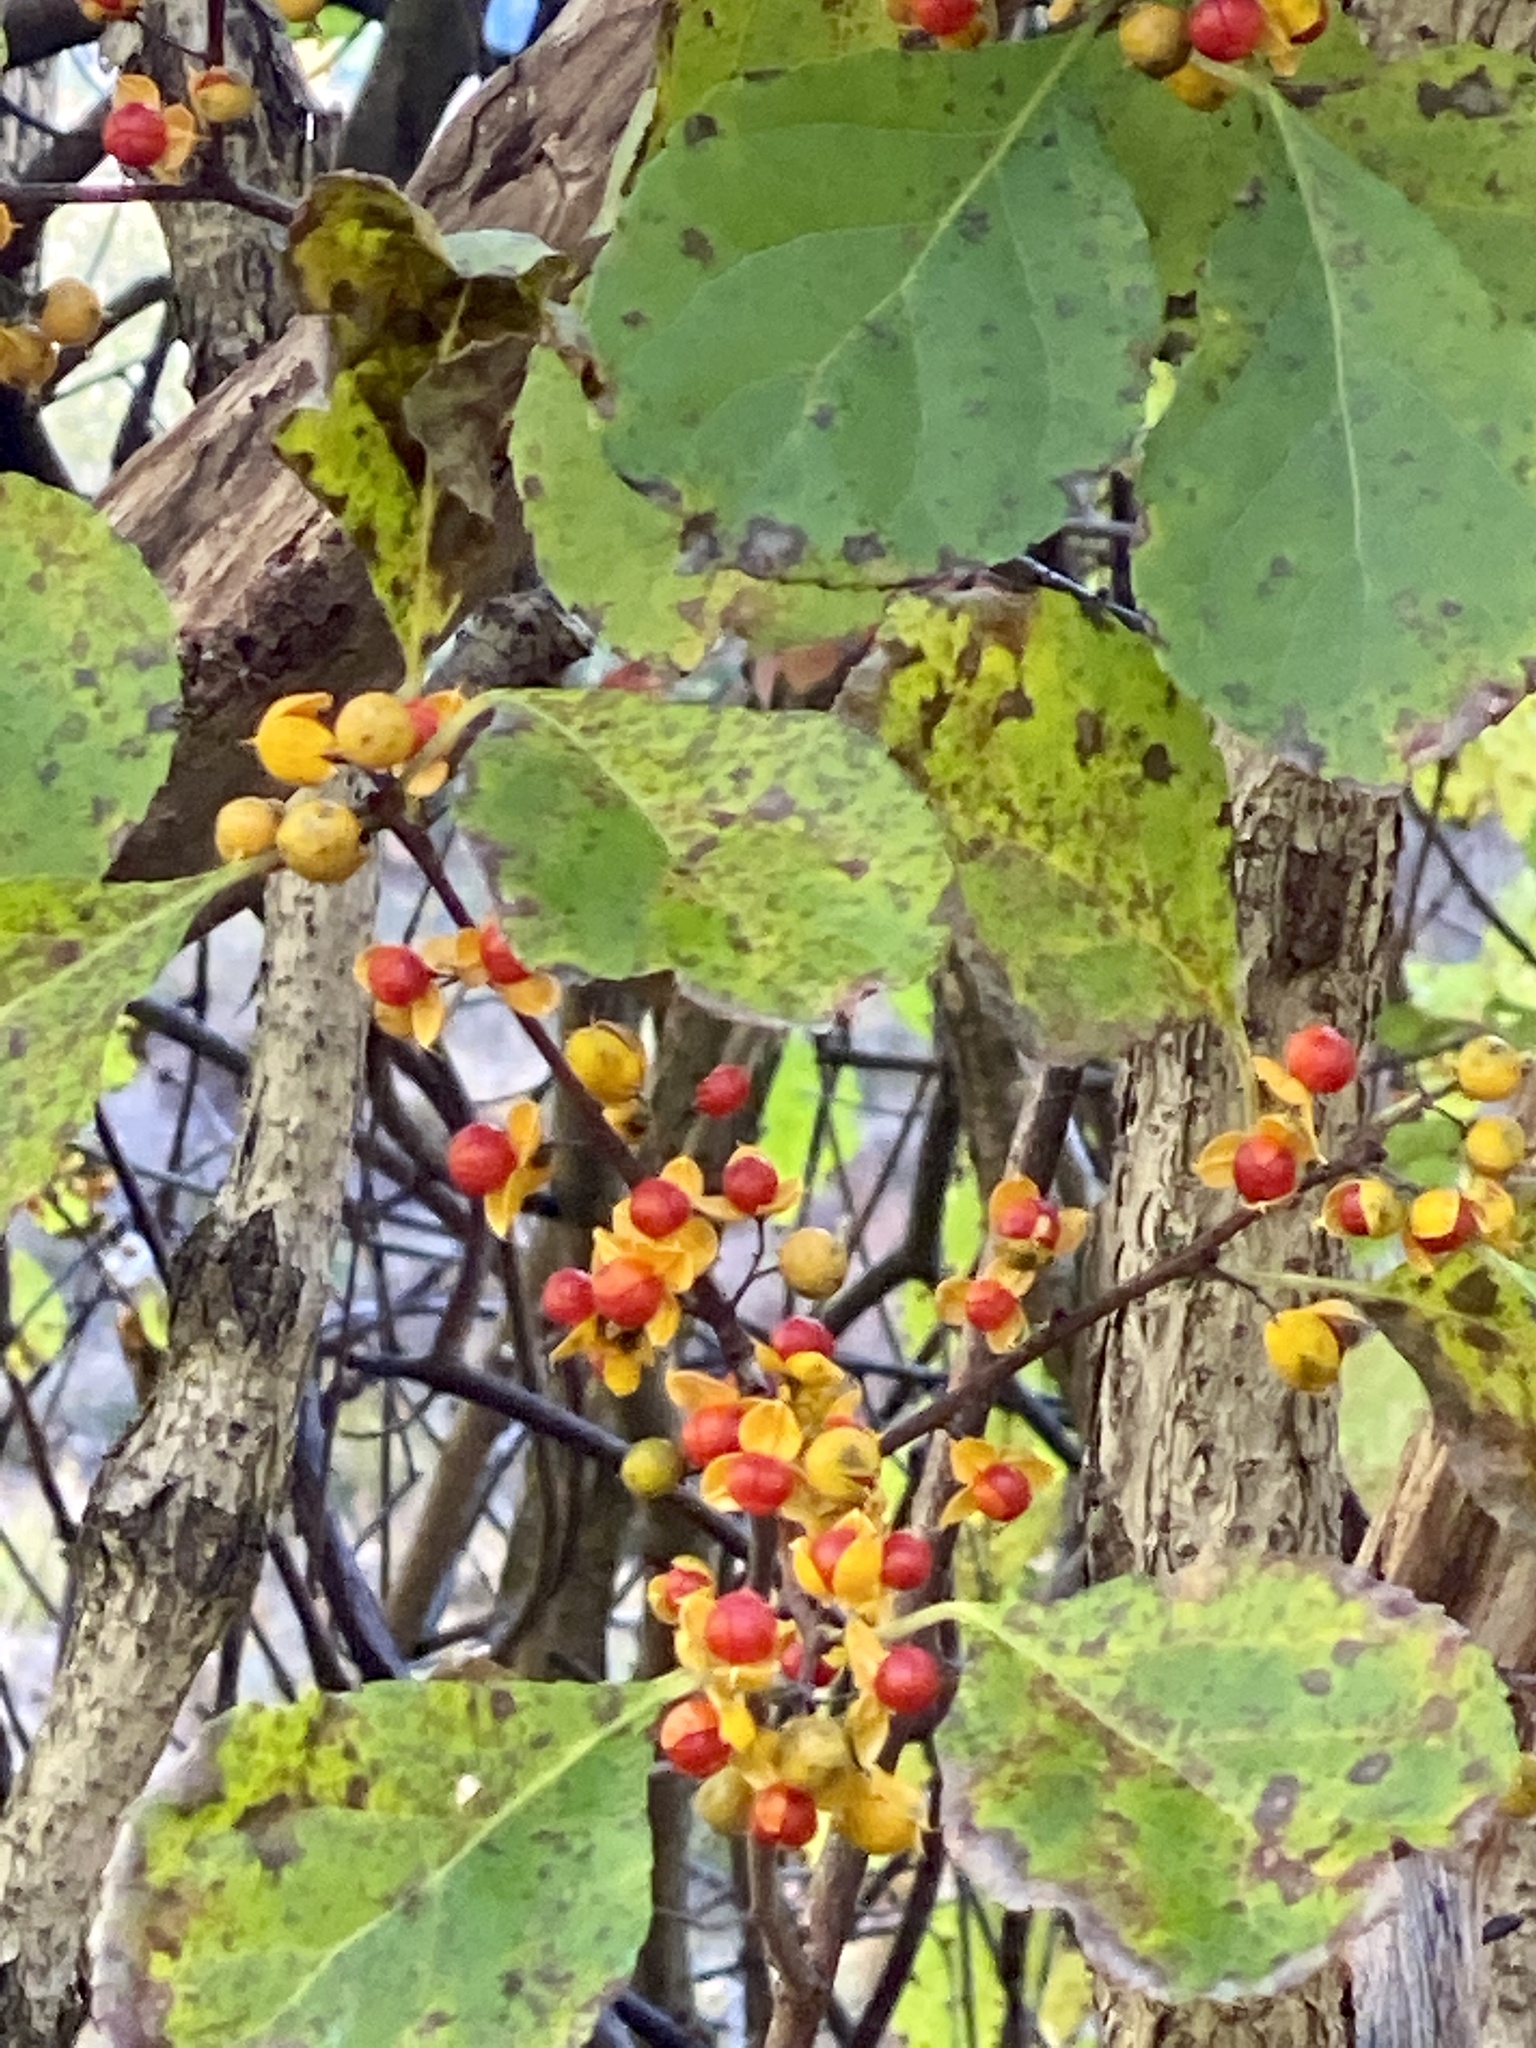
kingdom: Plantae
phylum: Tracheophyta
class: Magnoliopsida
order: Celastrales
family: Celastraceae
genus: Celastrus
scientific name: Celastrus orbiculatus
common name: Oriental bittersweet
